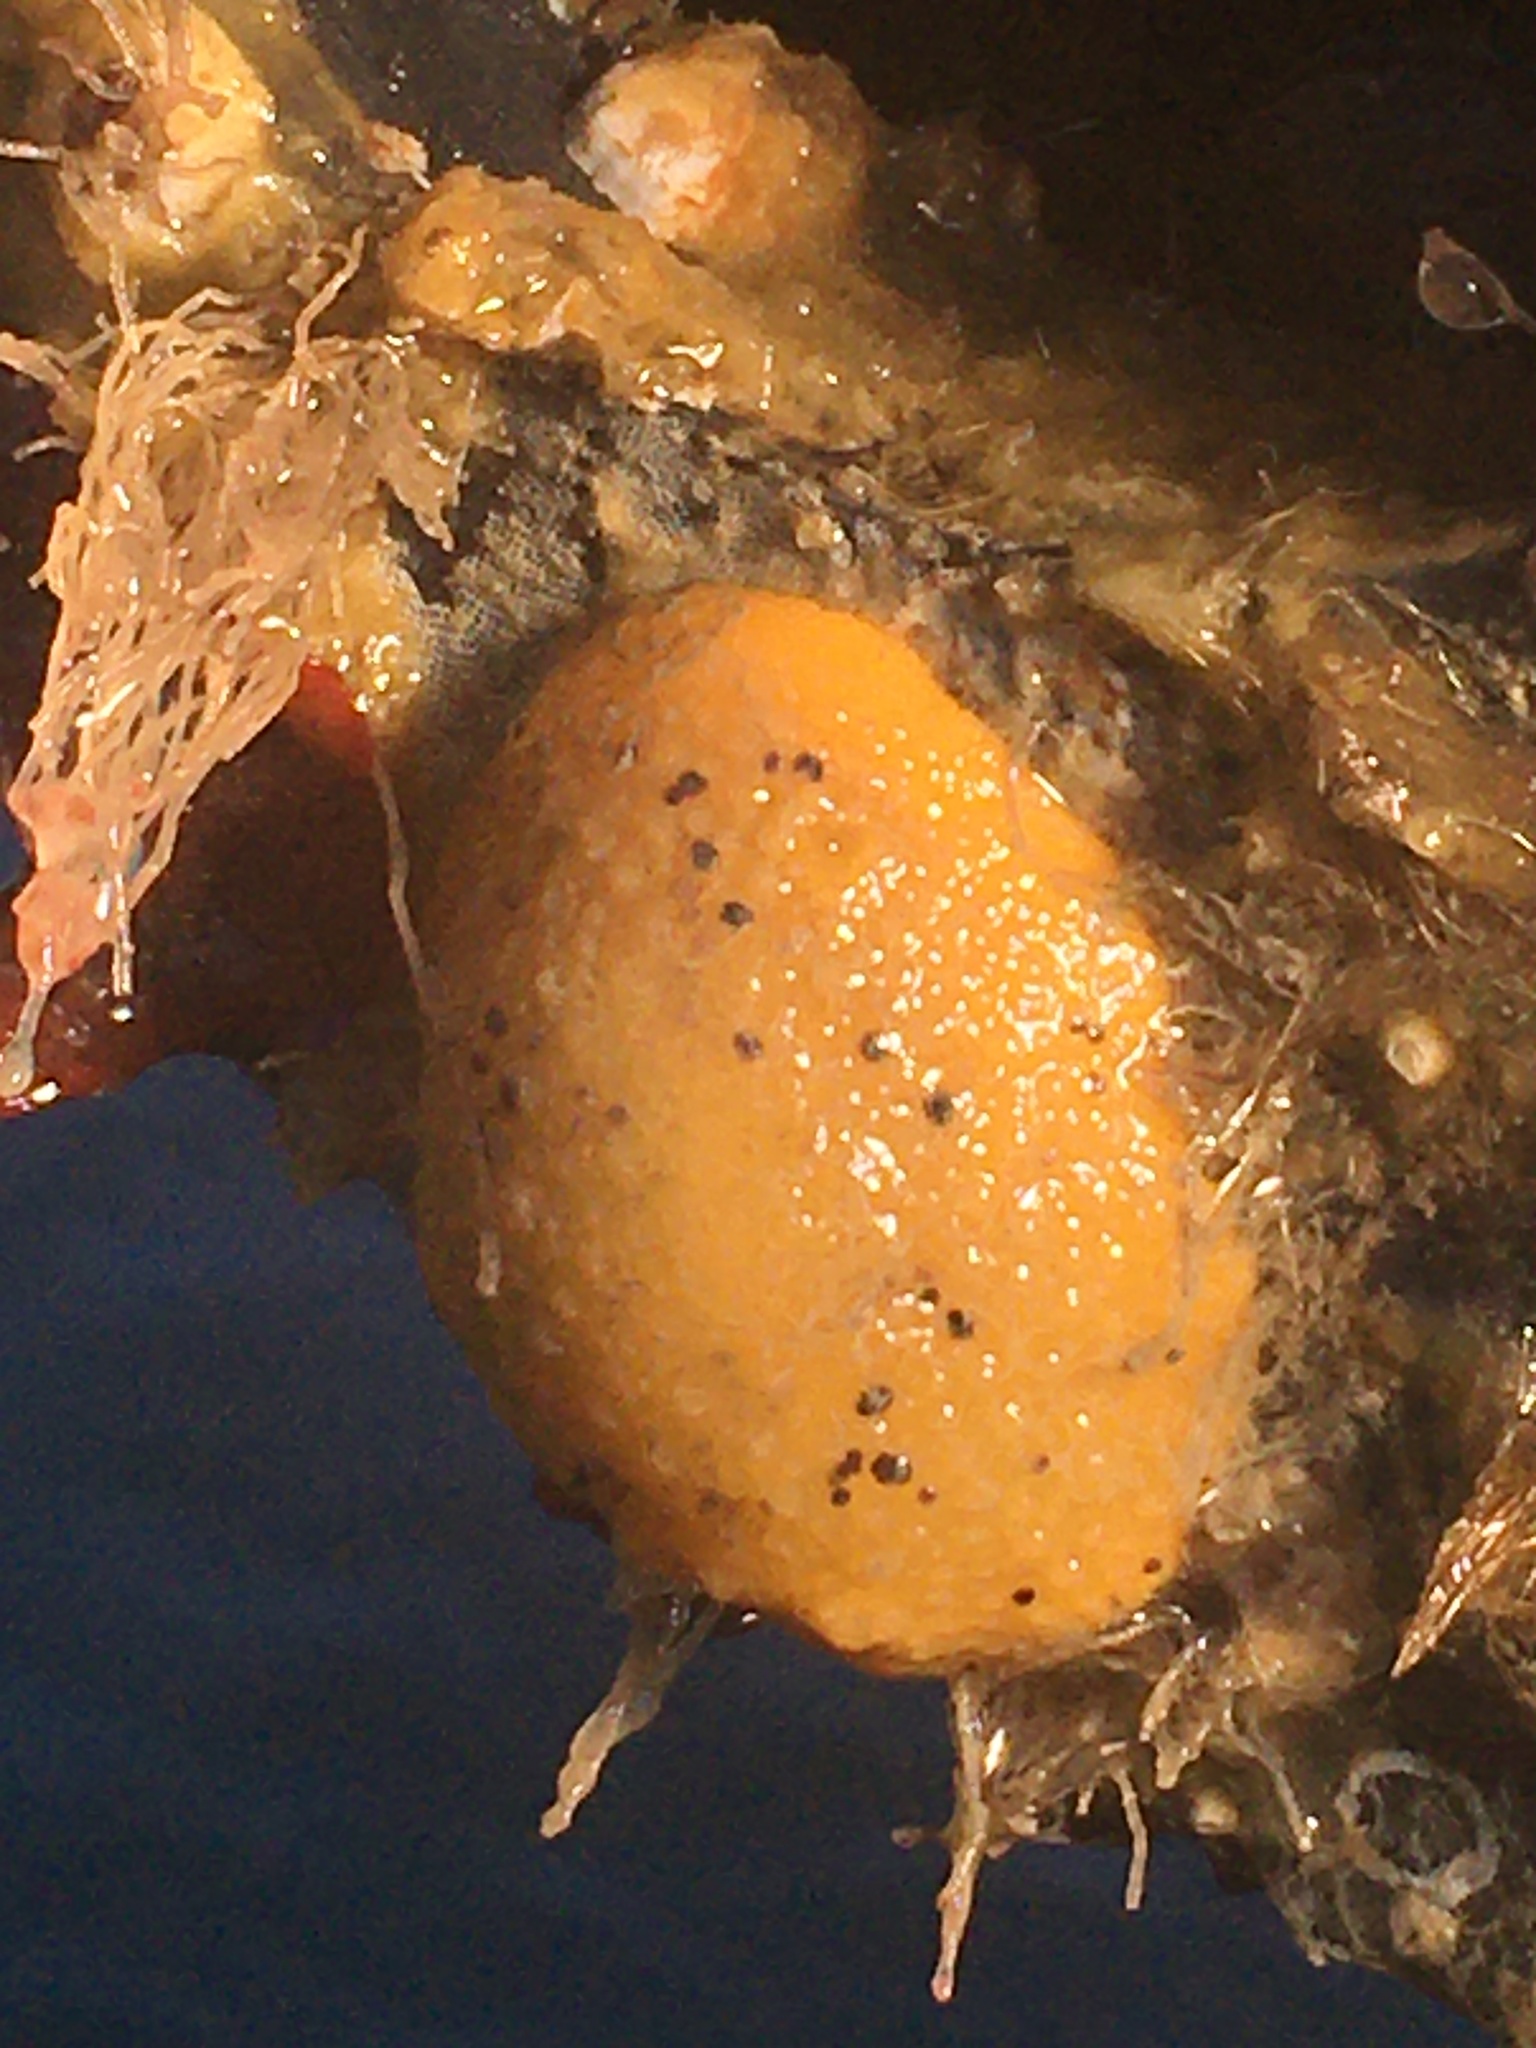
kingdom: Animalia
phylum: Mollusca
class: Gastropoda
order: Nudibranchia
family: Dorididae
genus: Doris
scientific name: Doris montereyensis
